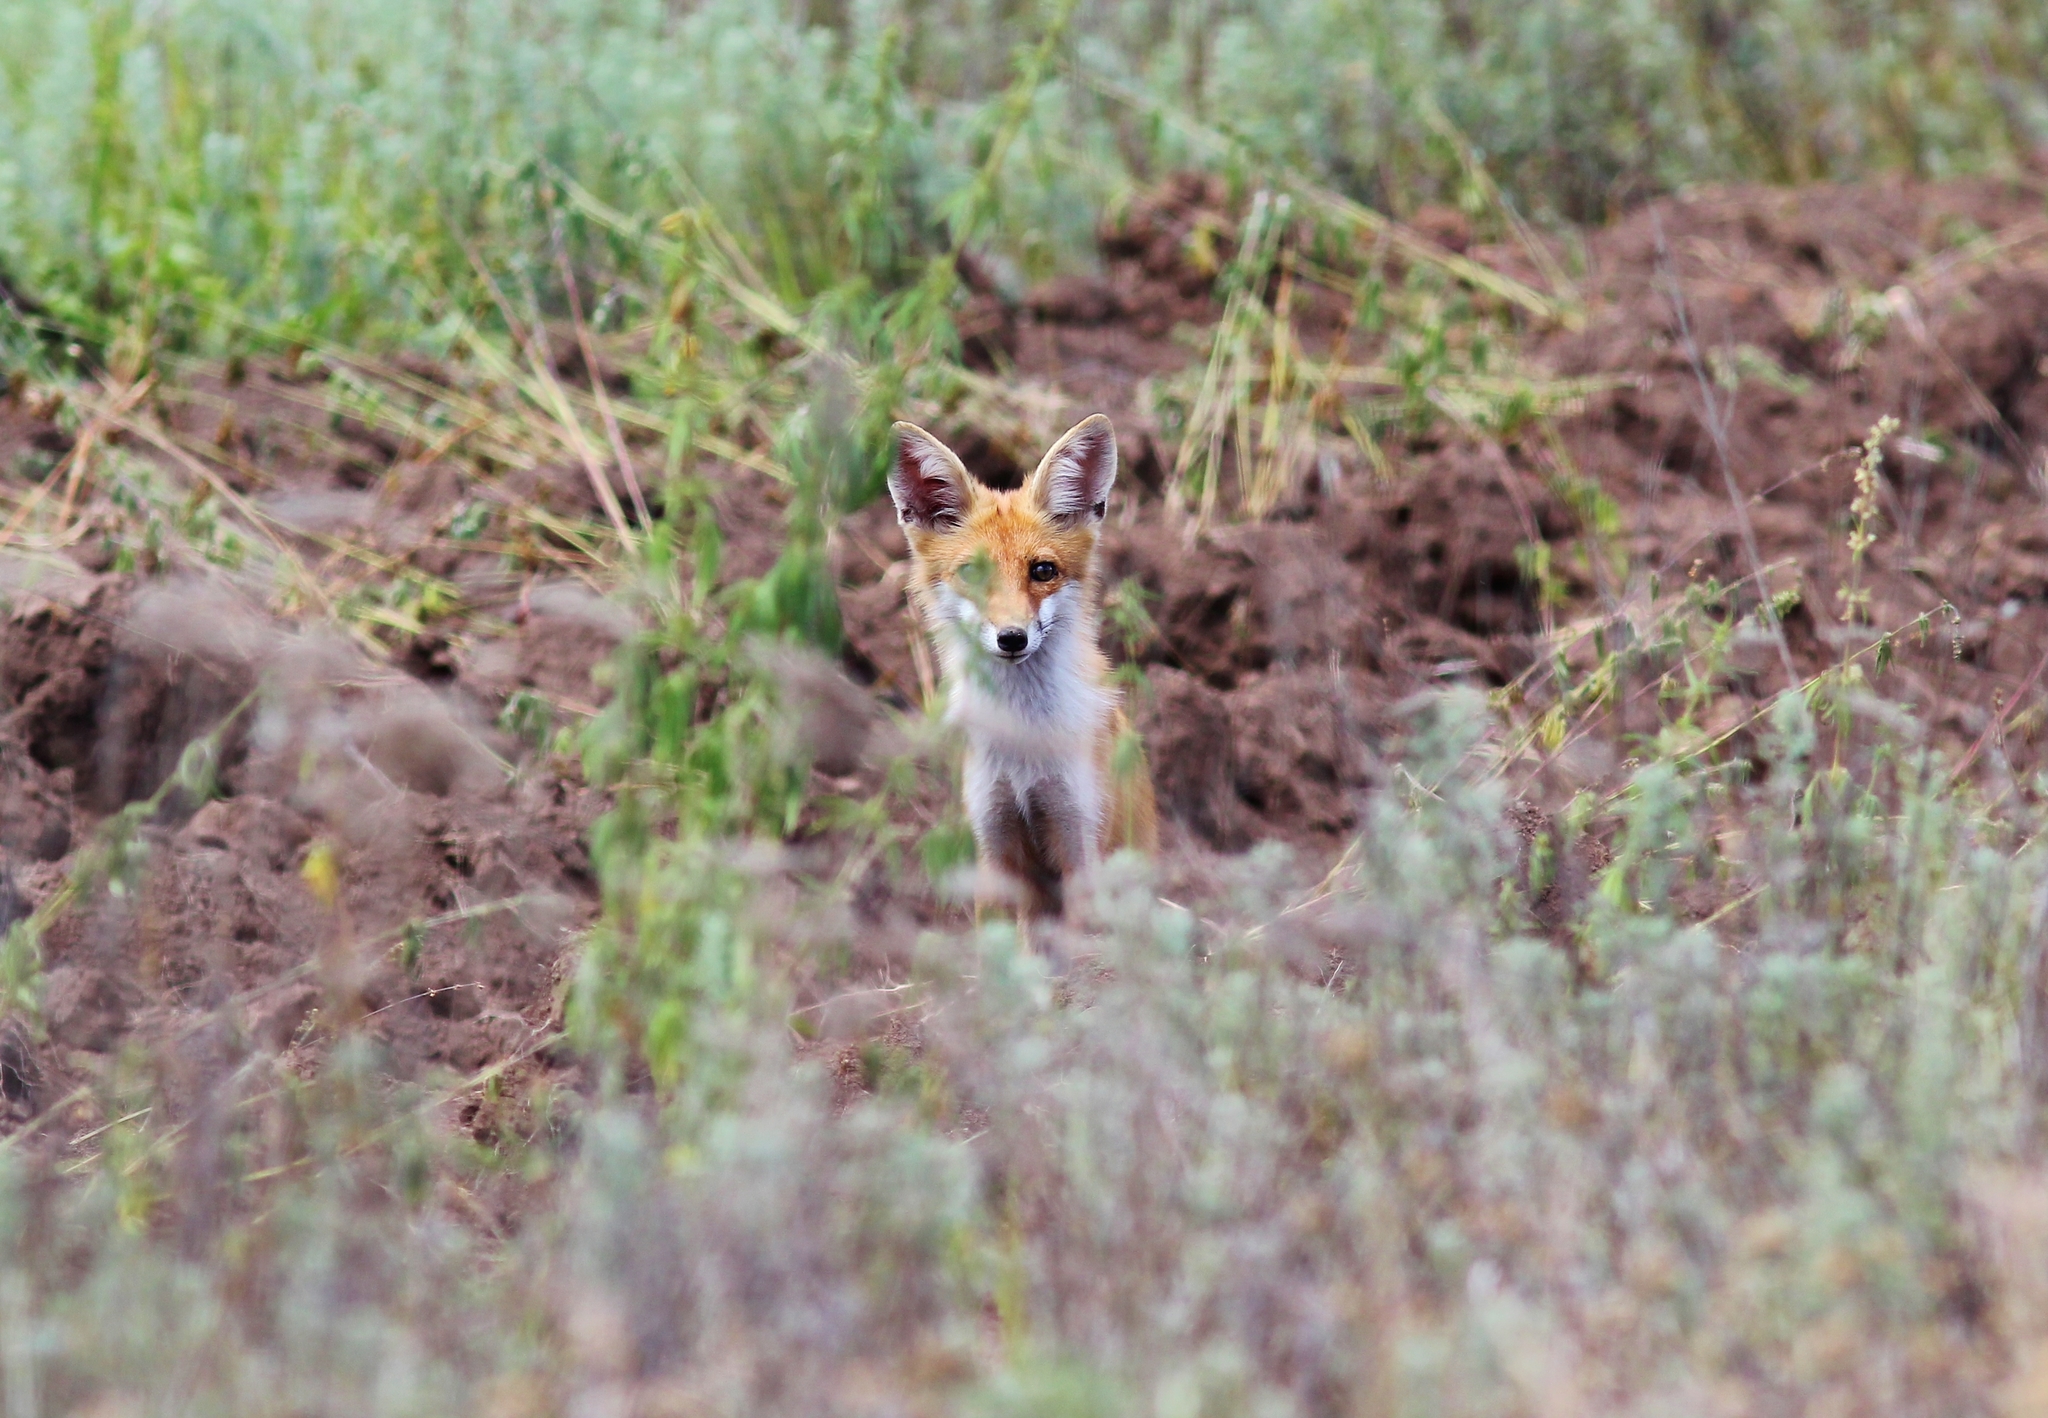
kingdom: Animalia
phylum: Chordata
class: Mammalia
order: Carnivora
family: Canidae
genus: Vulpes
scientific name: Vulpes vulpes
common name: Red fox
